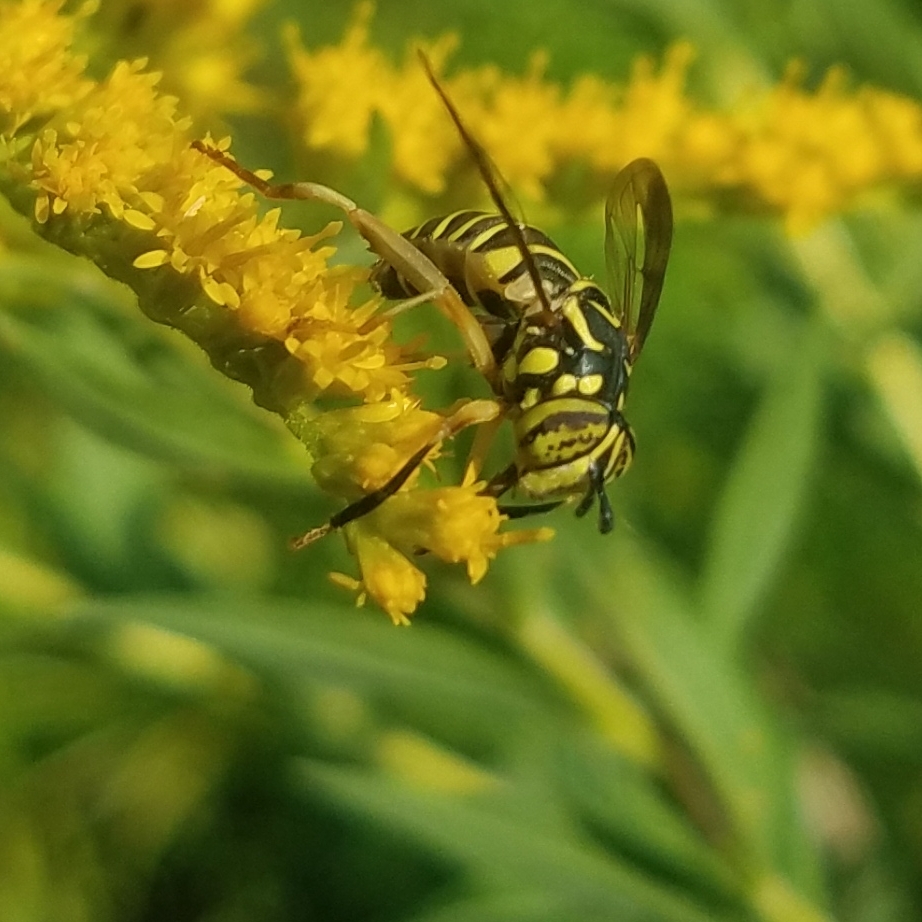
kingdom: Animalia
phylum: Arthropoda
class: Insecta
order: Diptera
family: Syrphidae
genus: Spilomyia
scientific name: Spilomyia longicornis
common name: Eastern hornet fly
